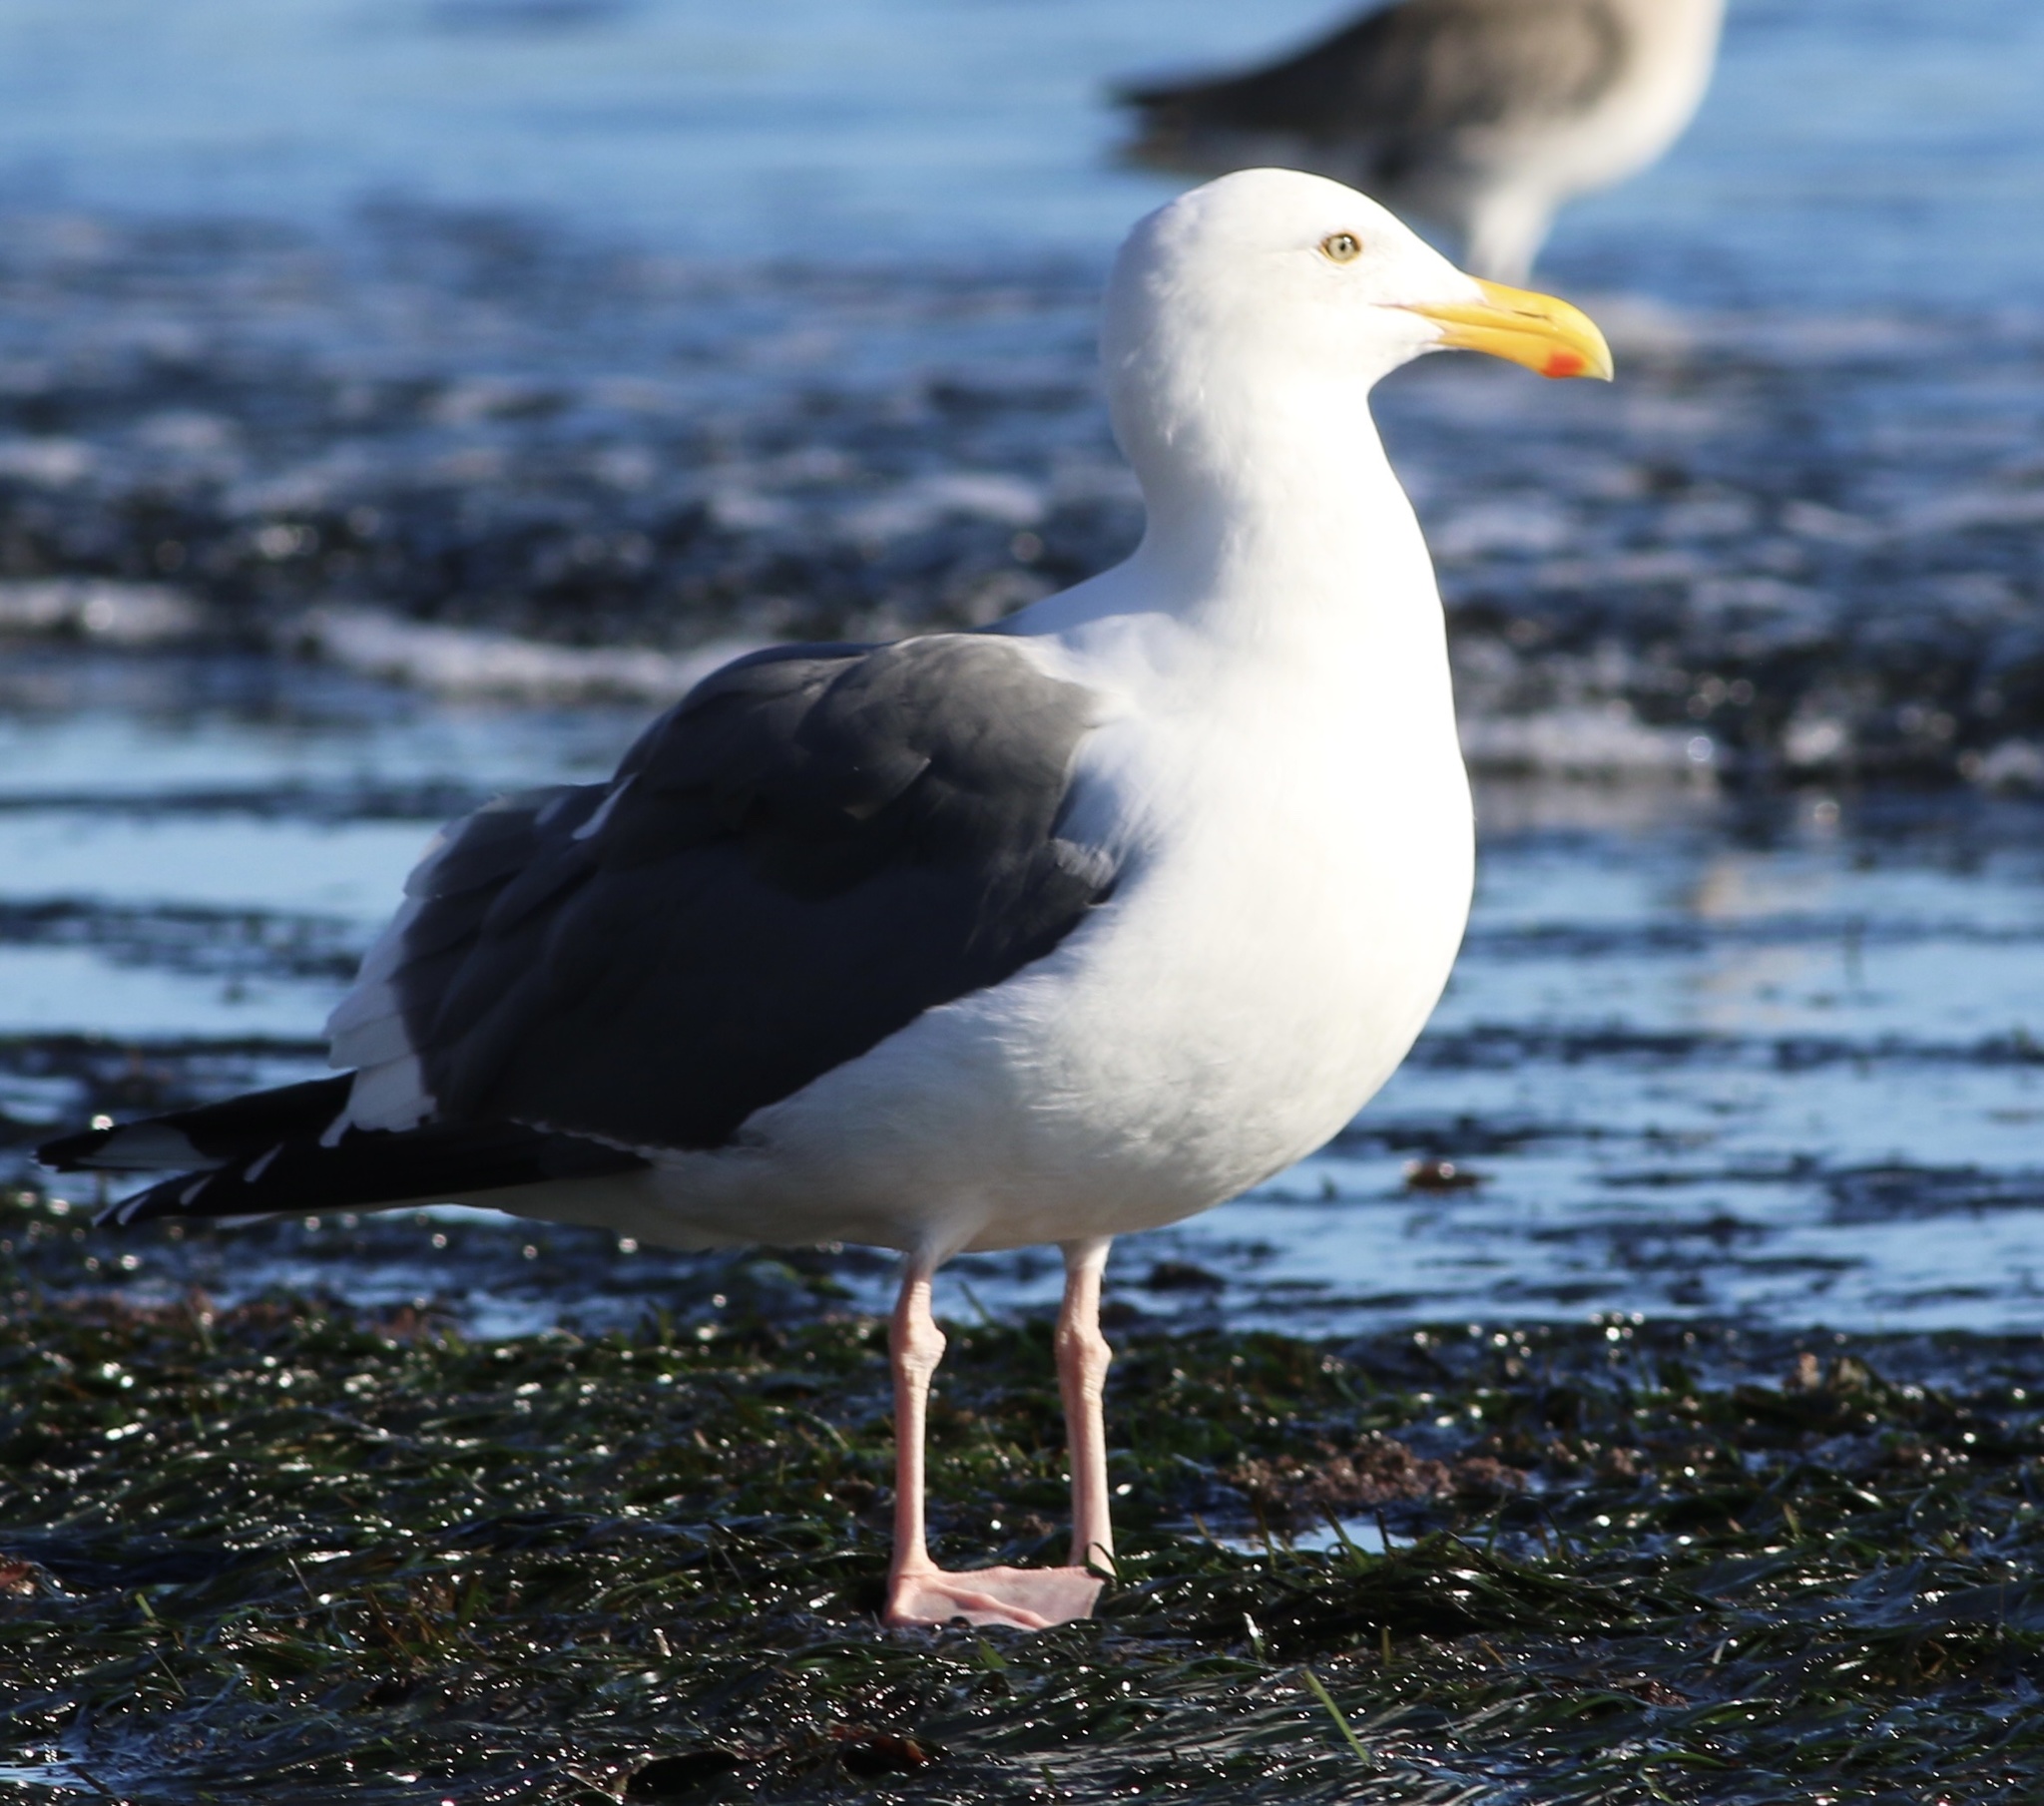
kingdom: Animalia
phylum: Chordata
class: Aves
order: Charadriiformes
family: Laridae
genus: Larus
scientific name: Larus occidentalis
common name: Western gull
